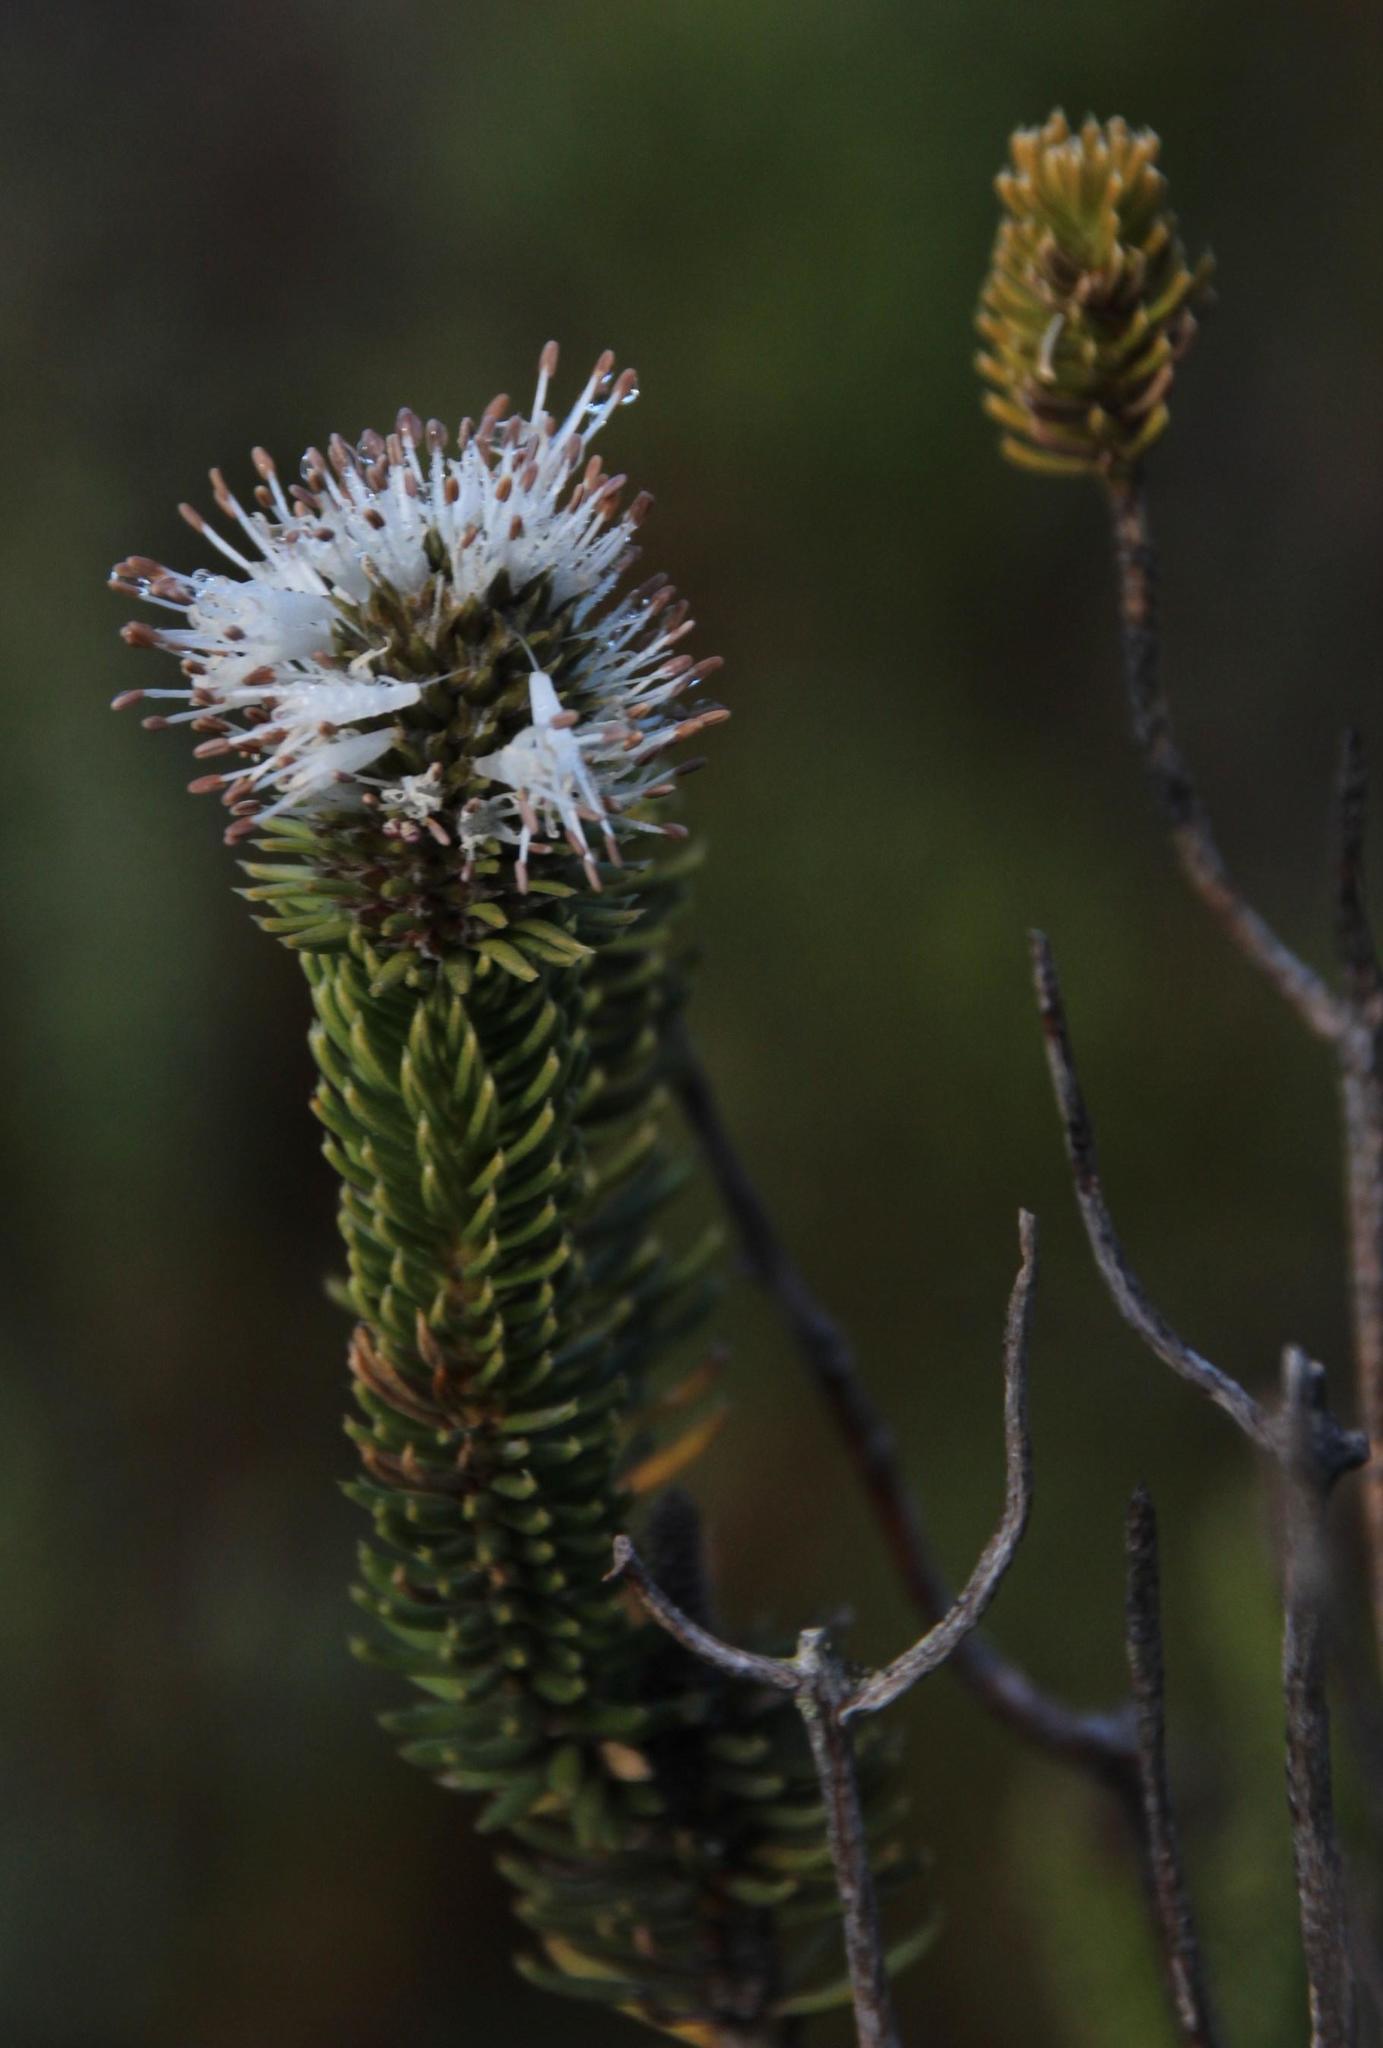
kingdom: Plantae
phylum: Tracheophyta
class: Magnoliopsida
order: Lamiales
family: Stilbaceae
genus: Stilbe
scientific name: Stilbe vestita
